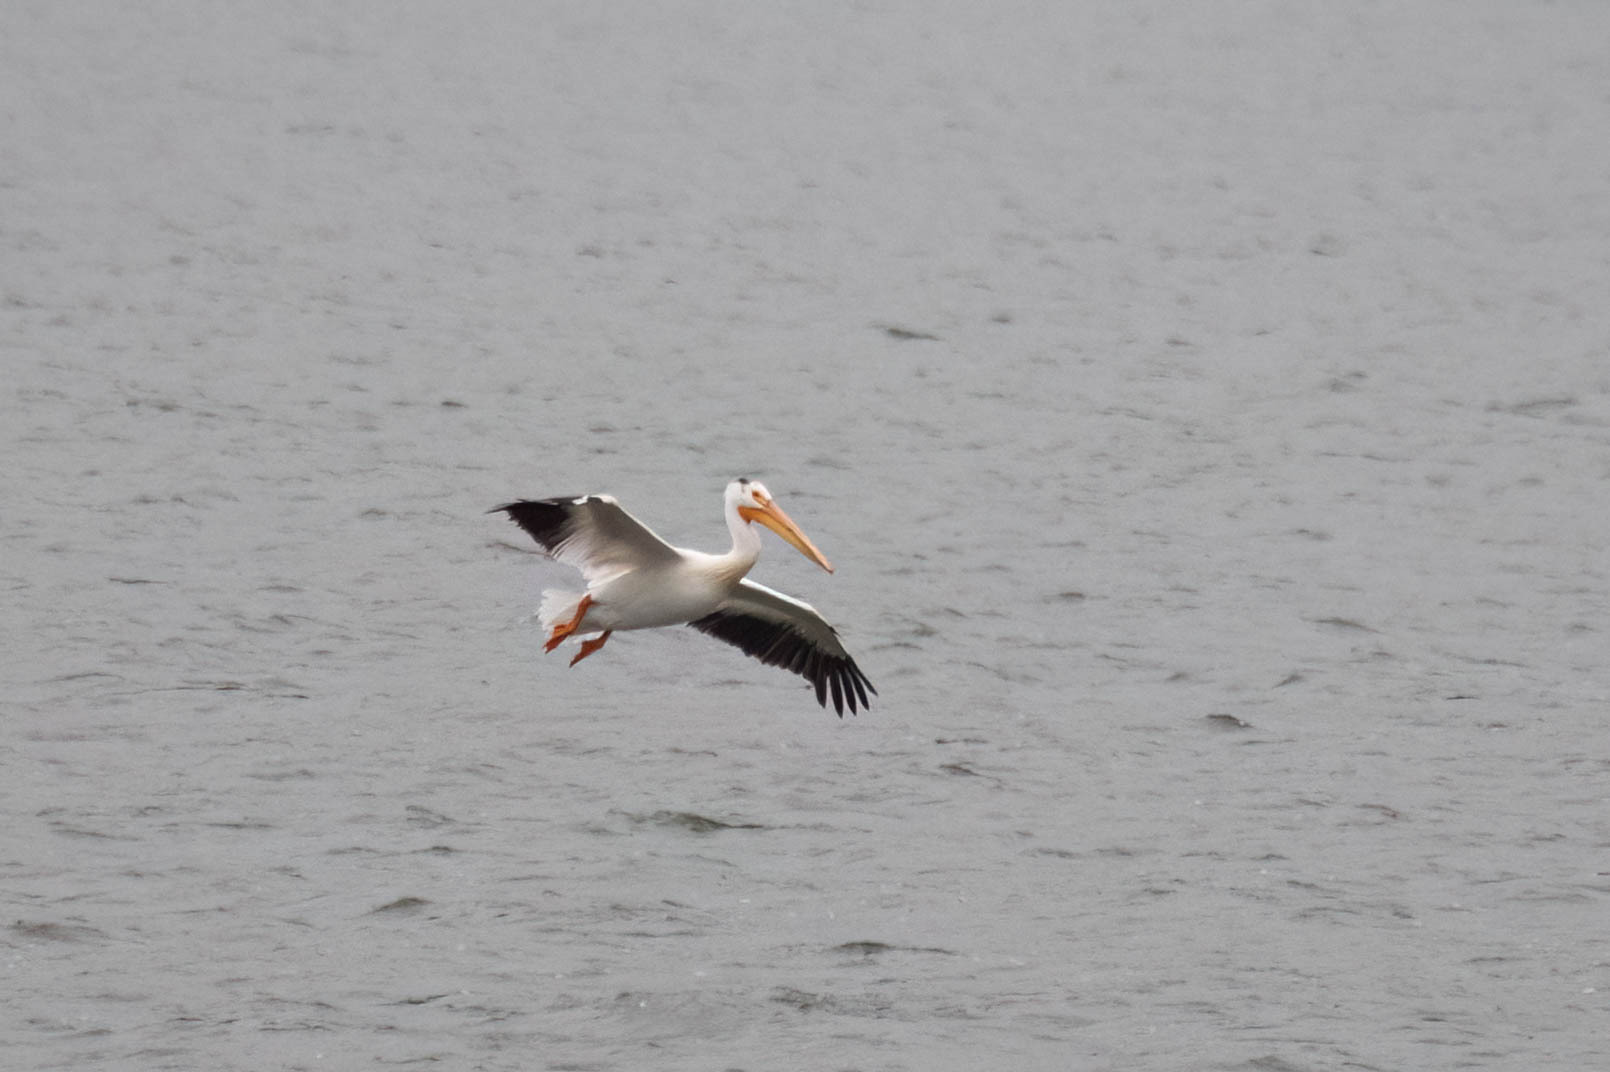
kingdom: Animalia
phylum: Chordata
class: Aves
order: Pelecaniformes
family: Pelecanidae
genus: Pelecanus
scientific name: Pelecanus erythrorhynchos
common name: American white pelican
